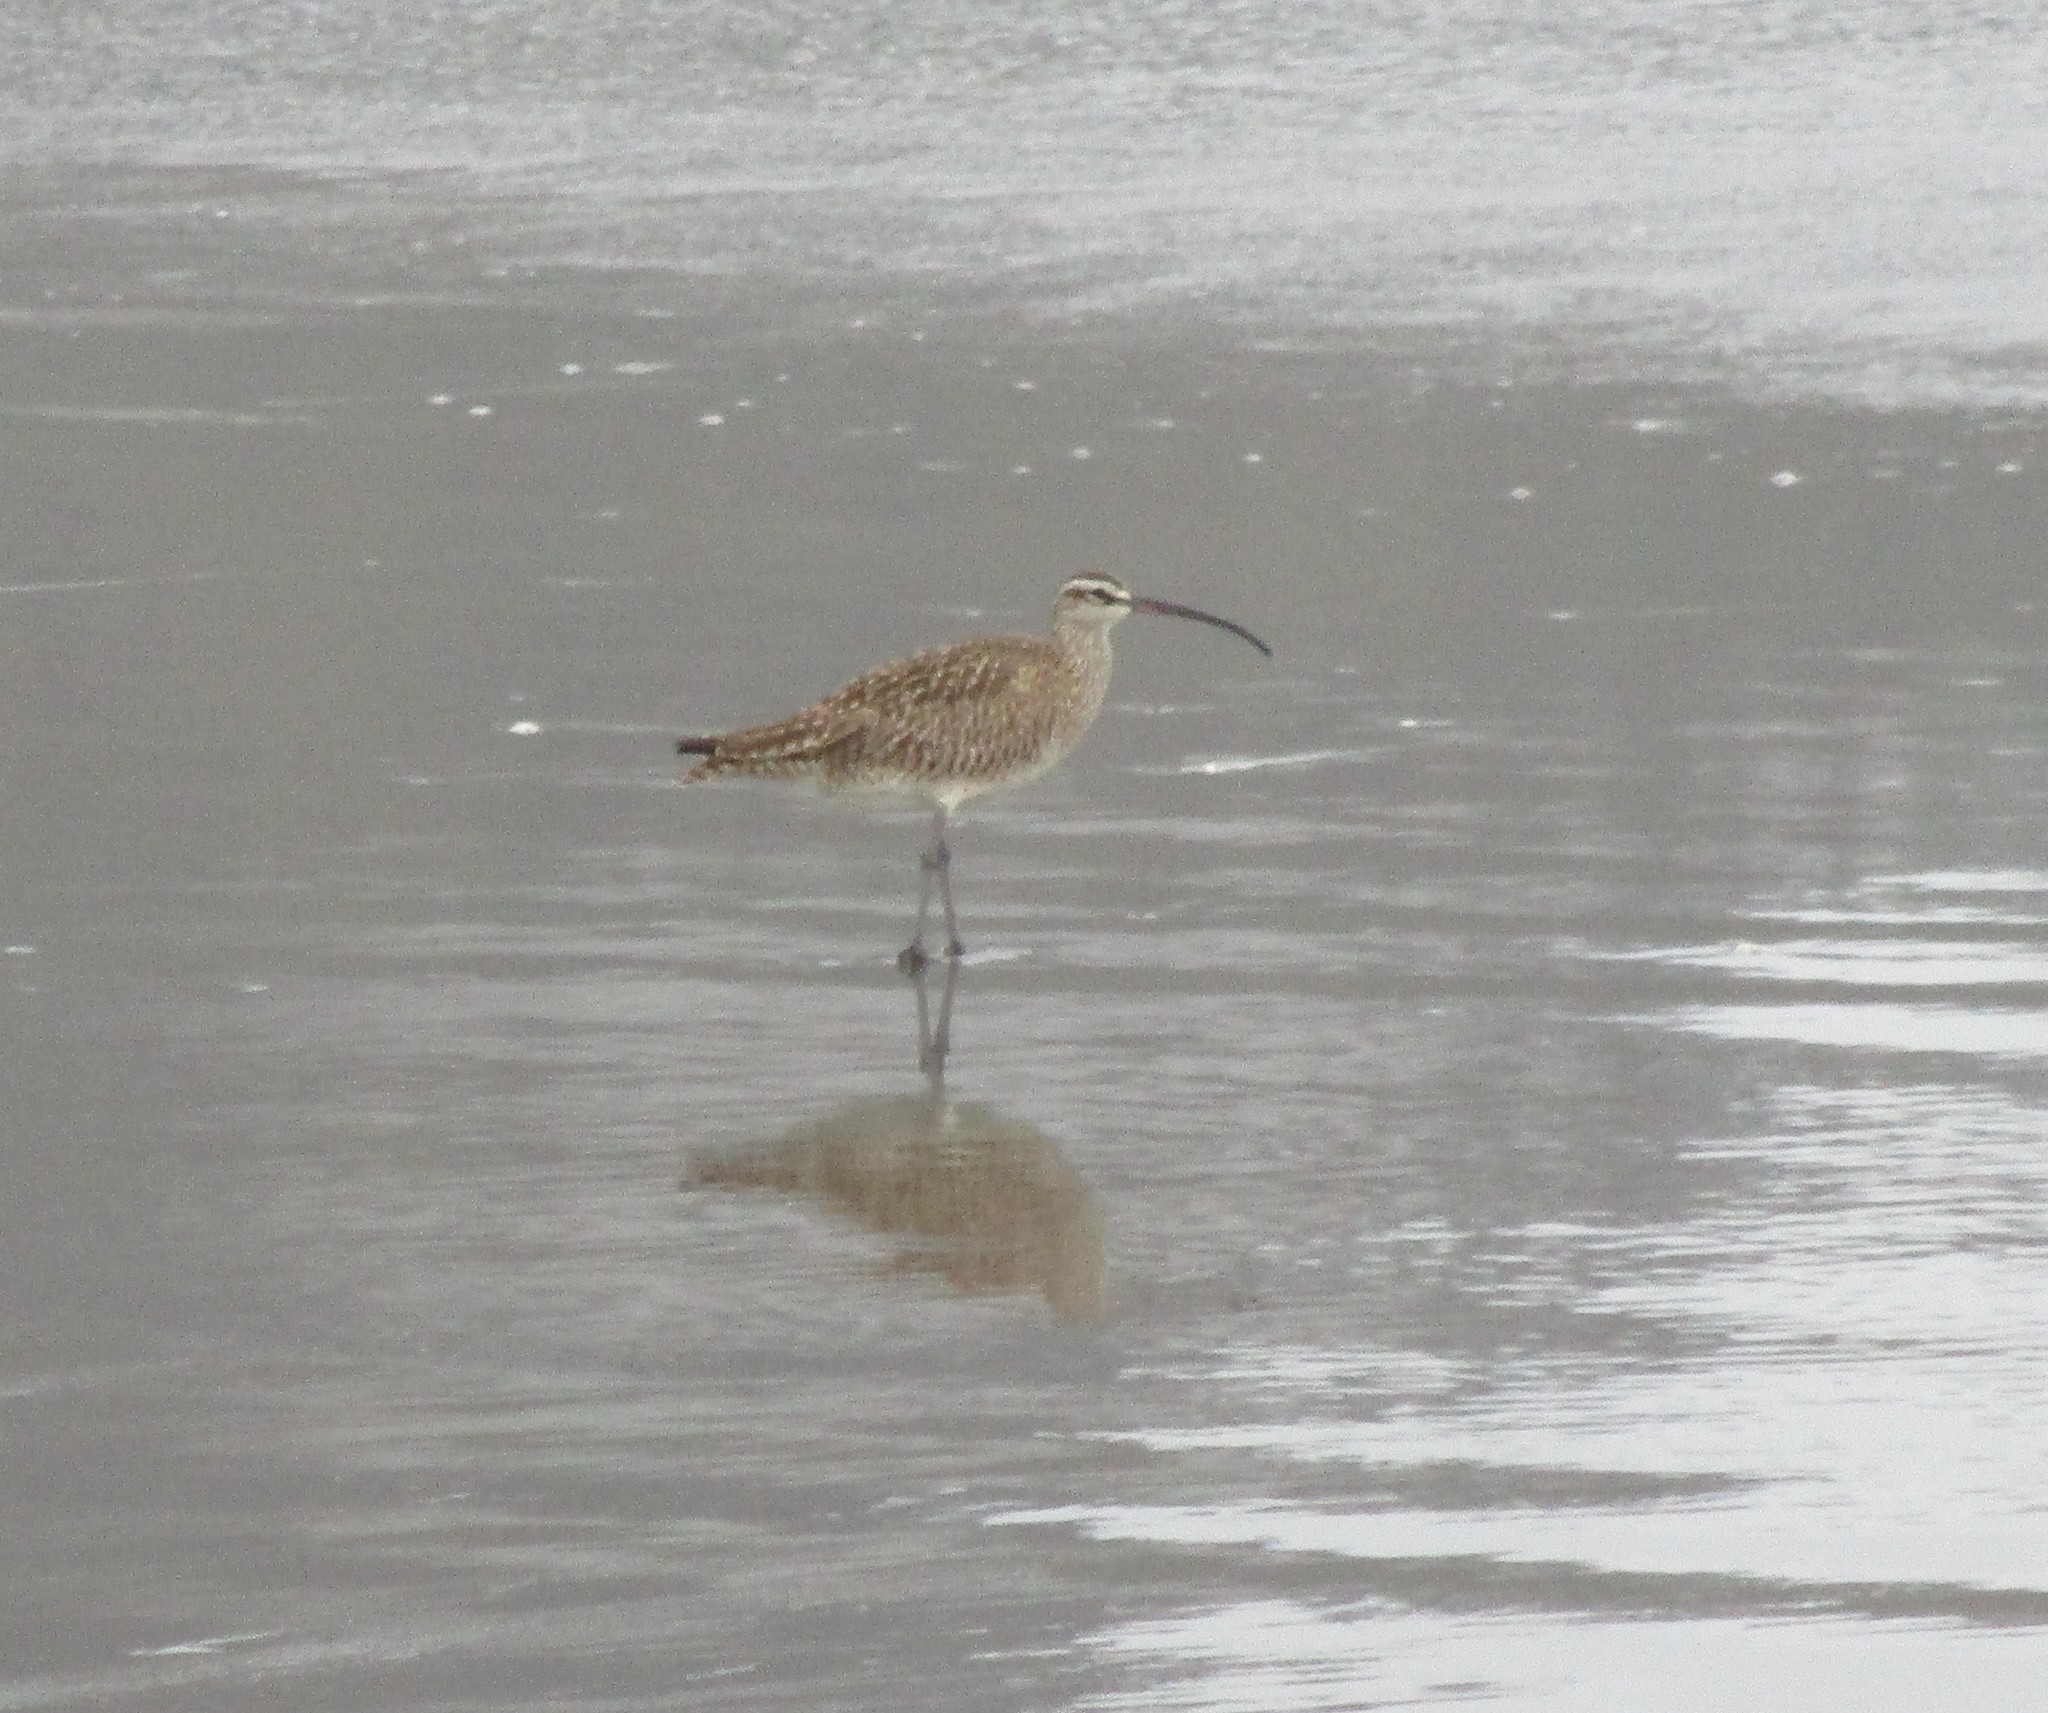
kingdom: Animalia
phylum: Chordata
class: Aves
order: Charadriiformes
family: Scolopacidae
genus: Numenius
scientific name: Numenius phaeopus
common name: Whimbrel
